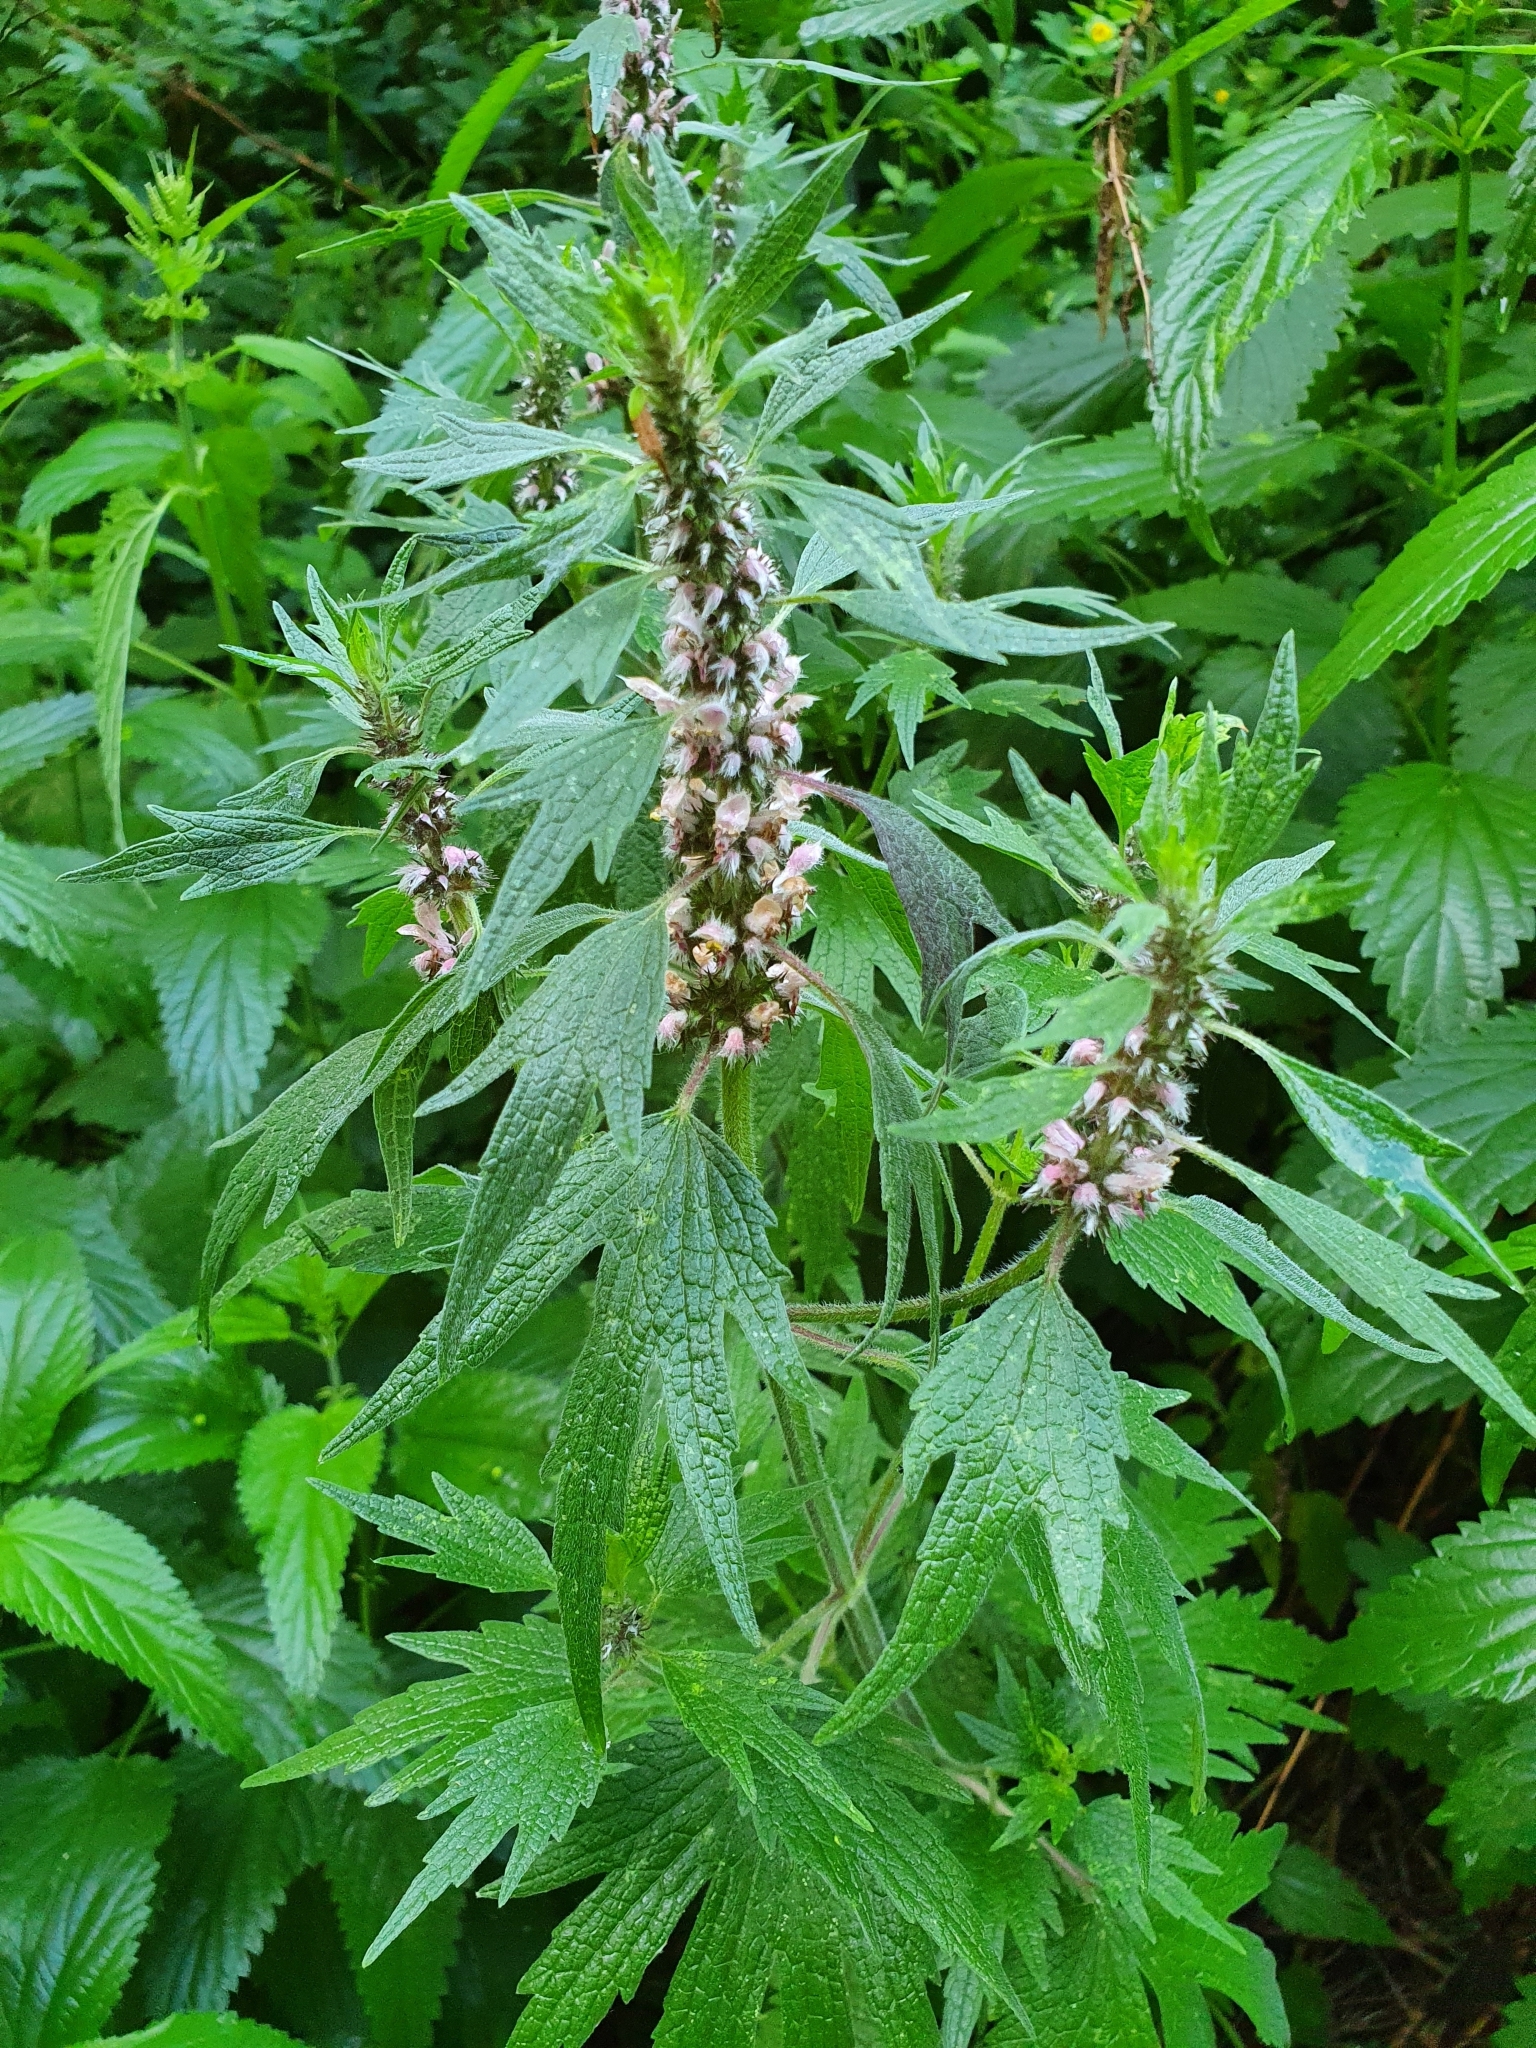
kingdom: Plantae
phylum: Tracheophyta
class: Magnoliopsida
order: Lamiales
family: Lamiaceae
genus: Leonurus
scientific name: Leonurus quinquelobatus
